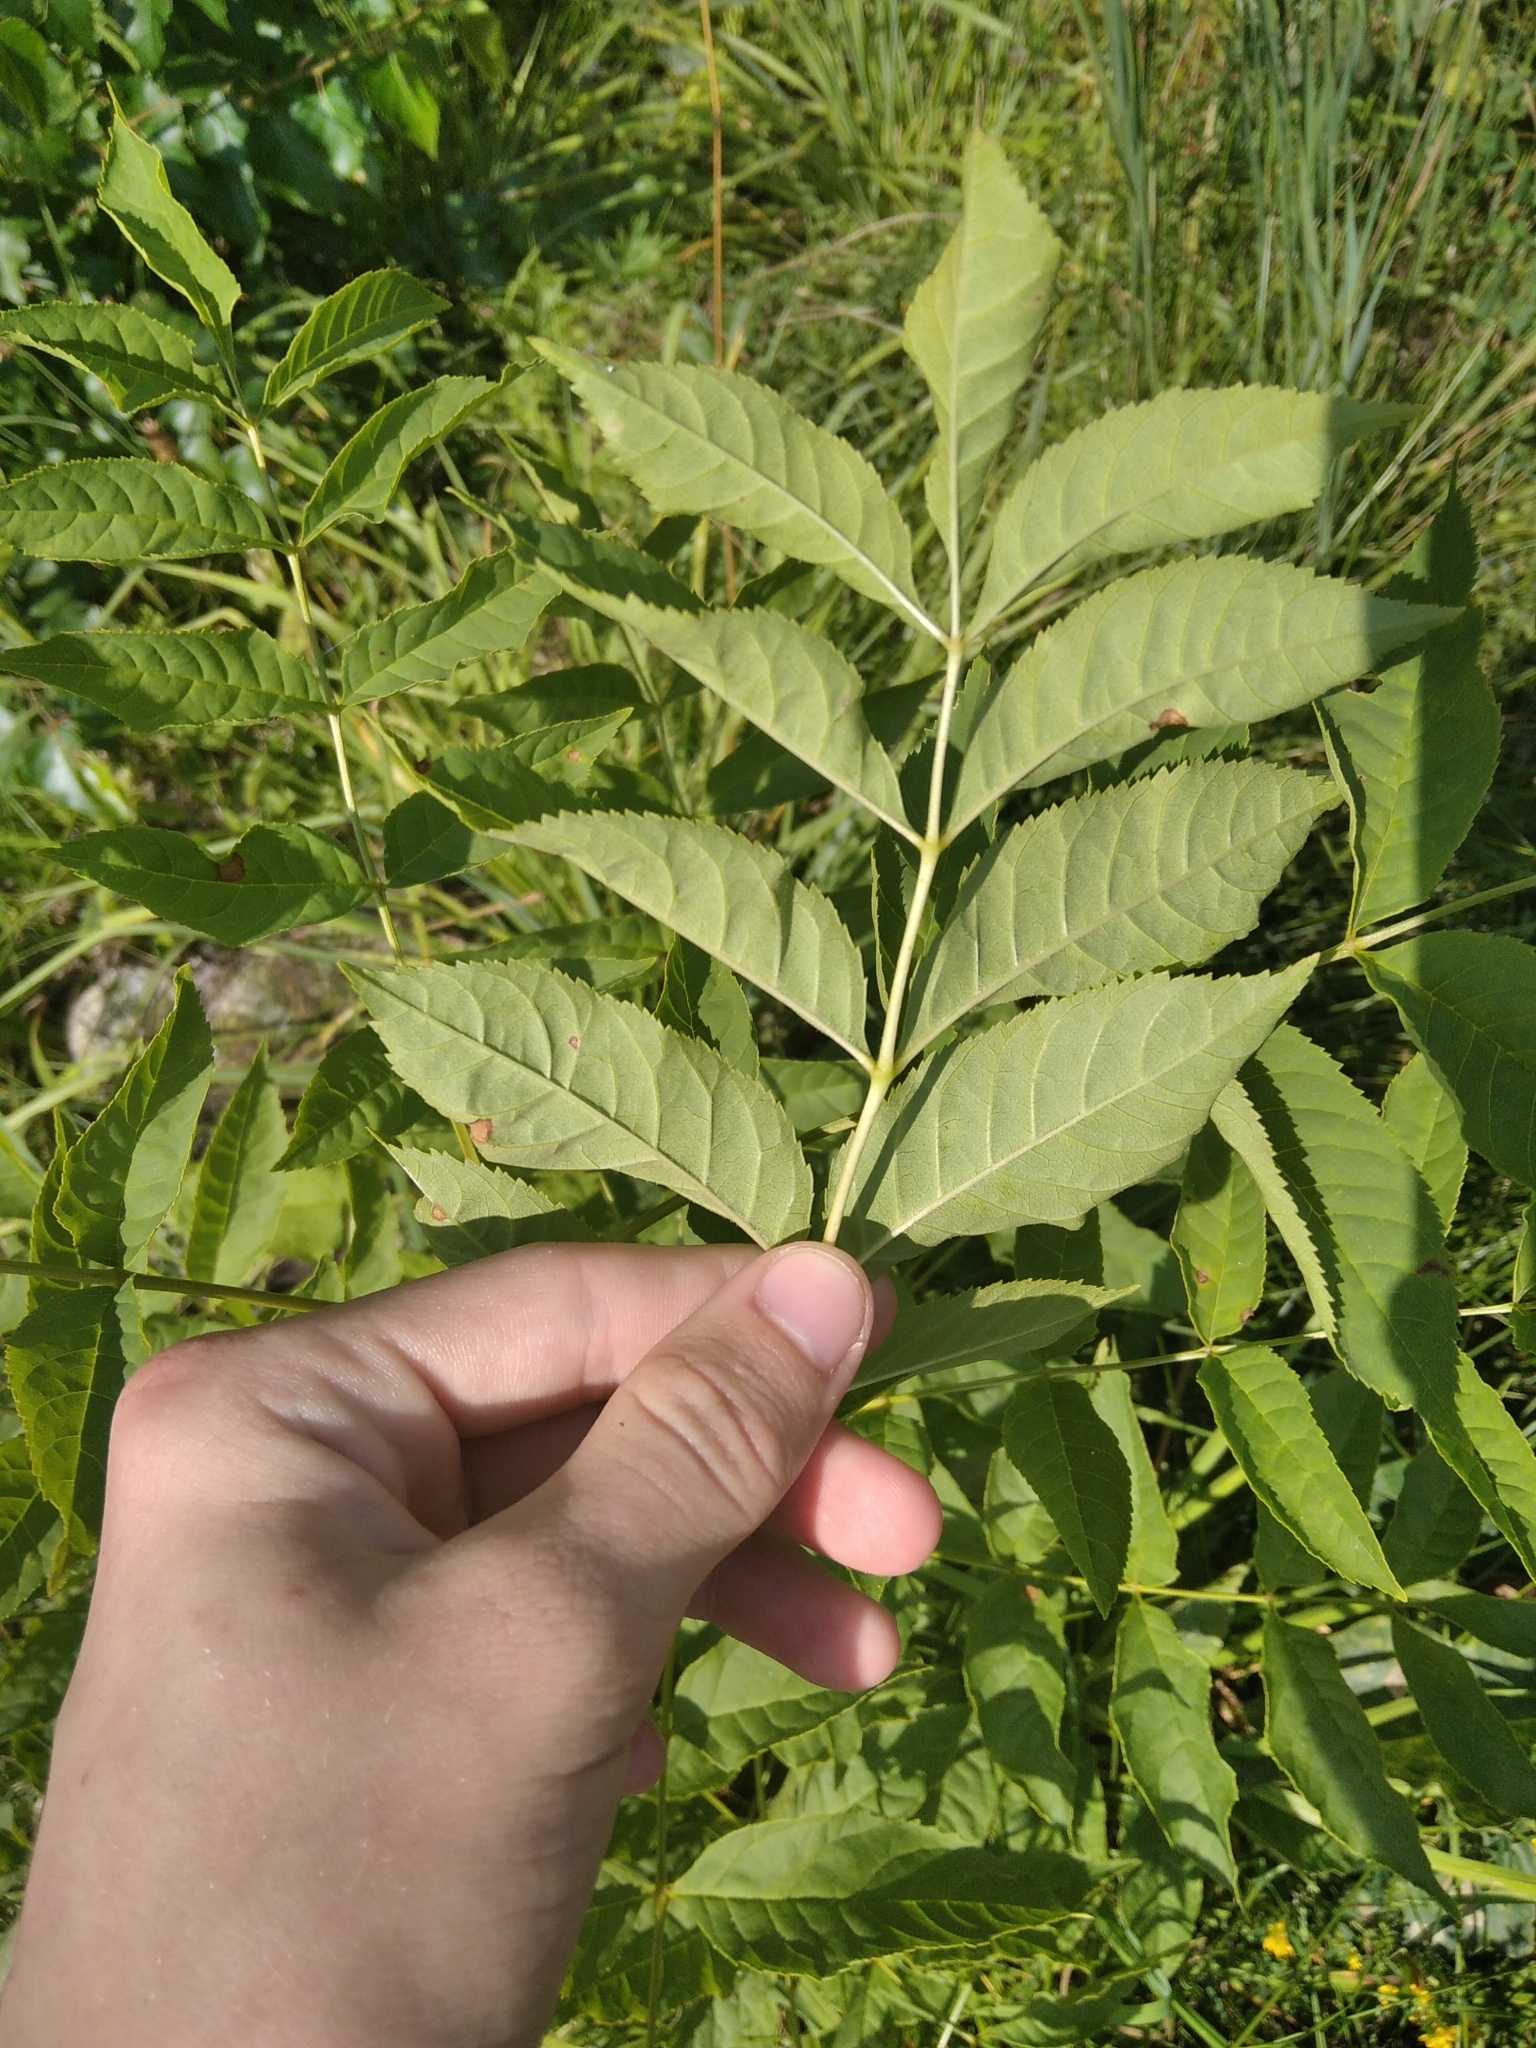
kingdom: Plantae
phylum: Tracheophyta
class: Magnoliopsida
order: Lamiales
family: Oleaceae
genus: Fraxinus
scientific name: Fraxinus excelsior
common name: European ash
